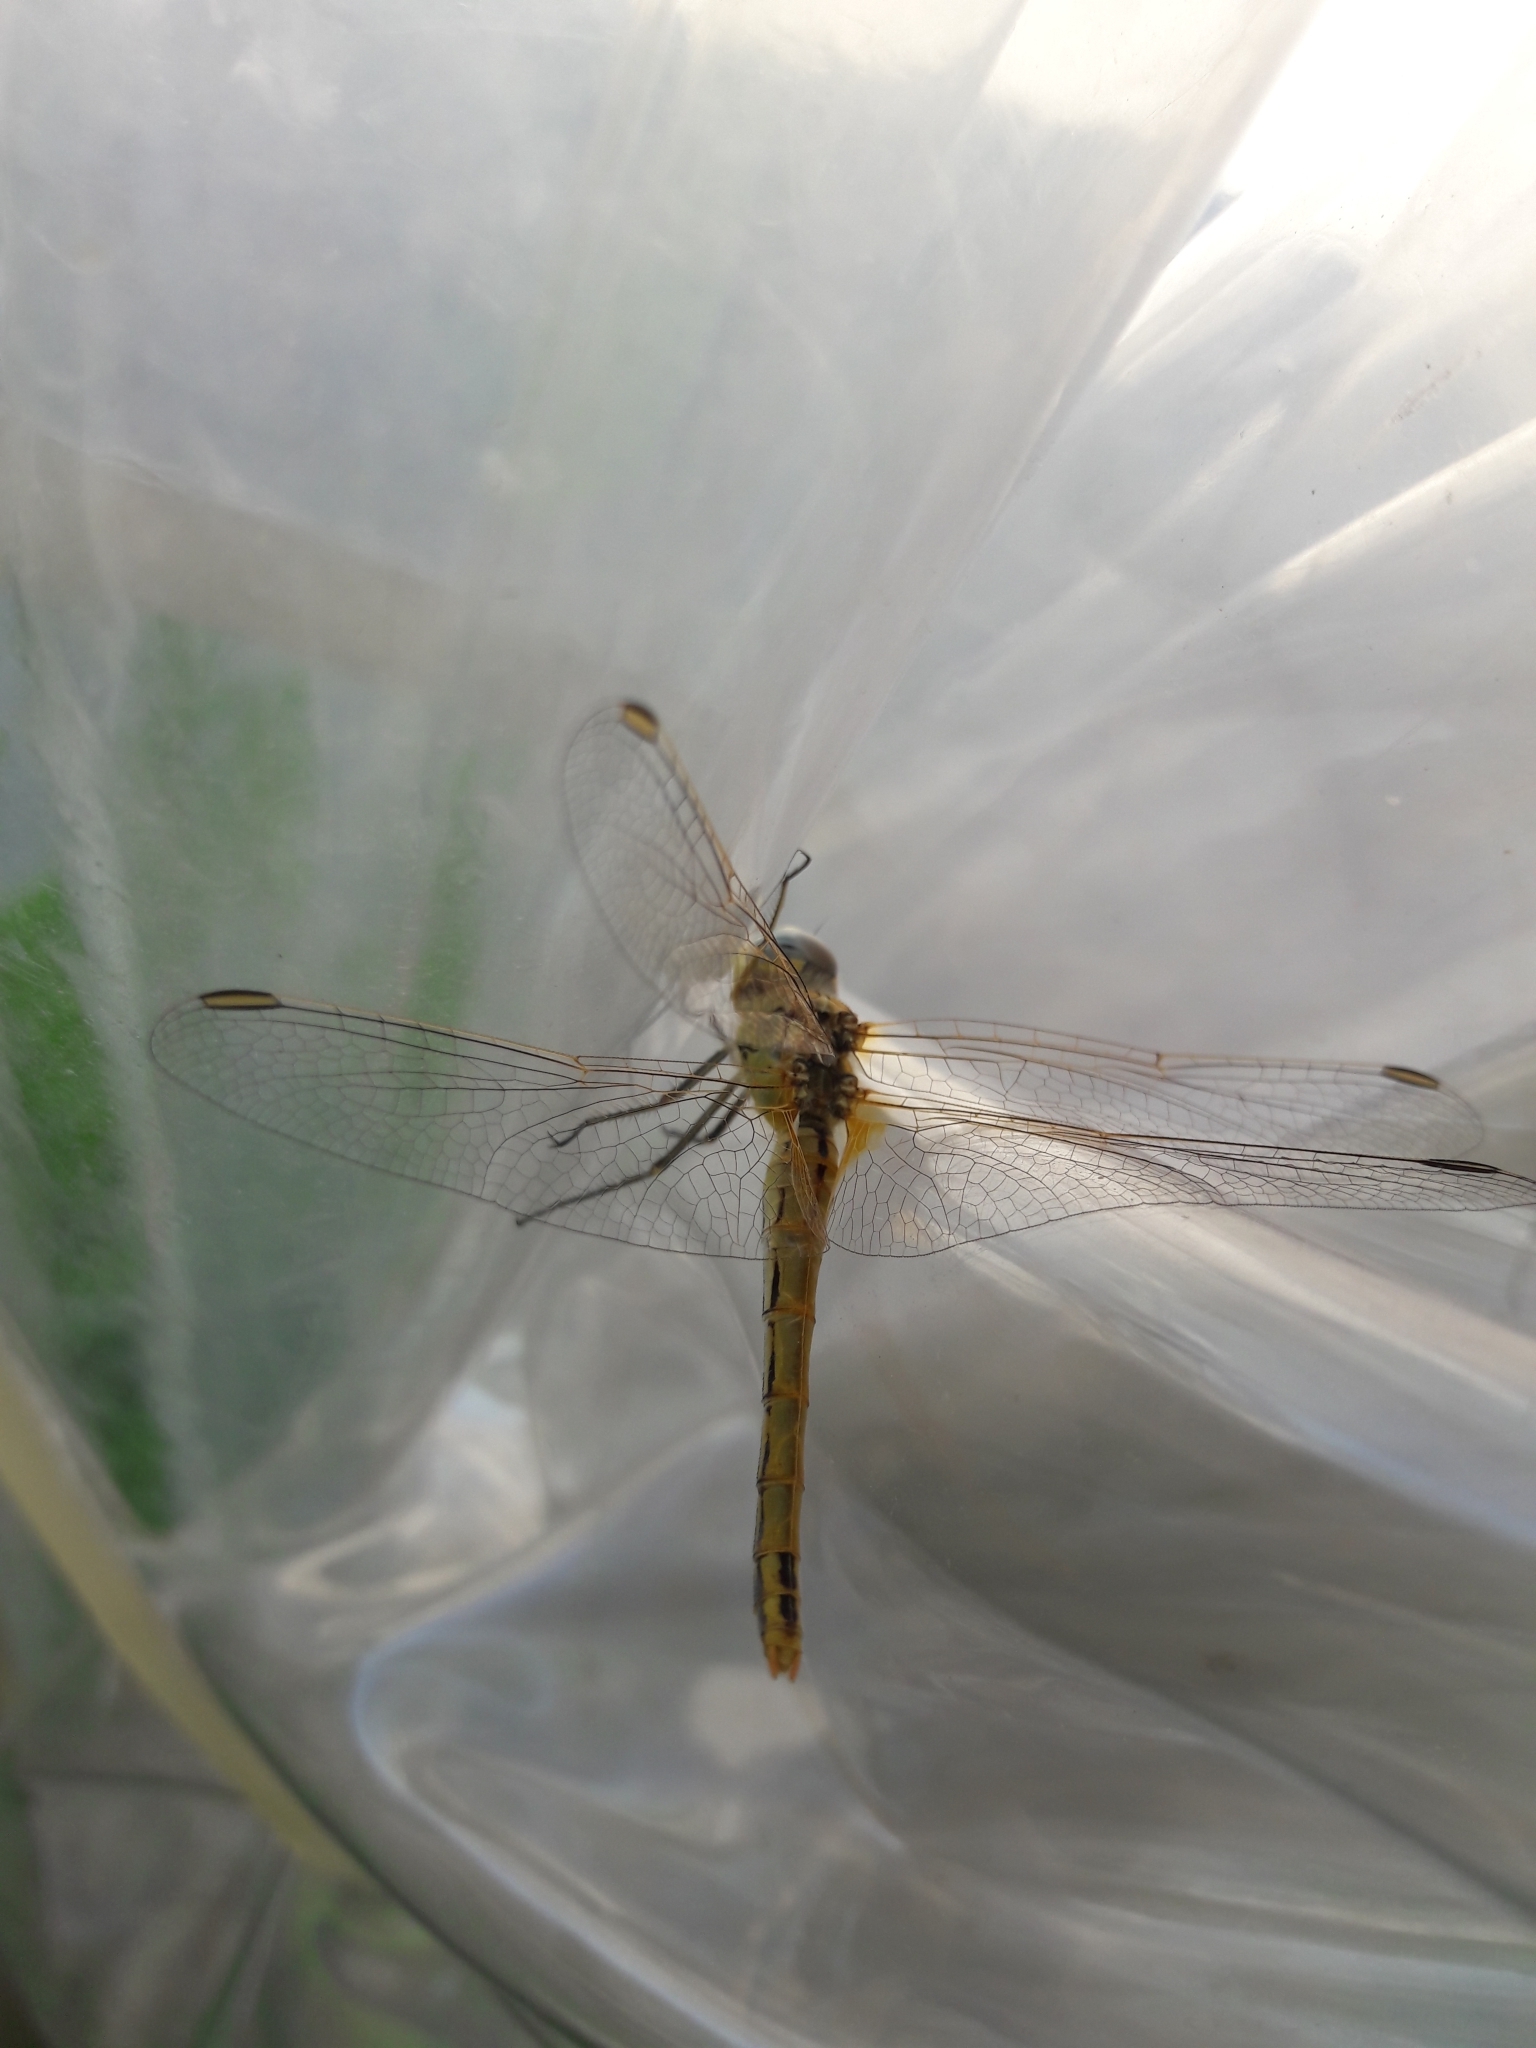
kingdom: Animalia
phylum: Arthropoda
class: Insecta
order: Odonata
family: Libellulidae
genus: Sympetrum
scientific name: Sympetrum fonscolombii
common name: Red-veined darter
